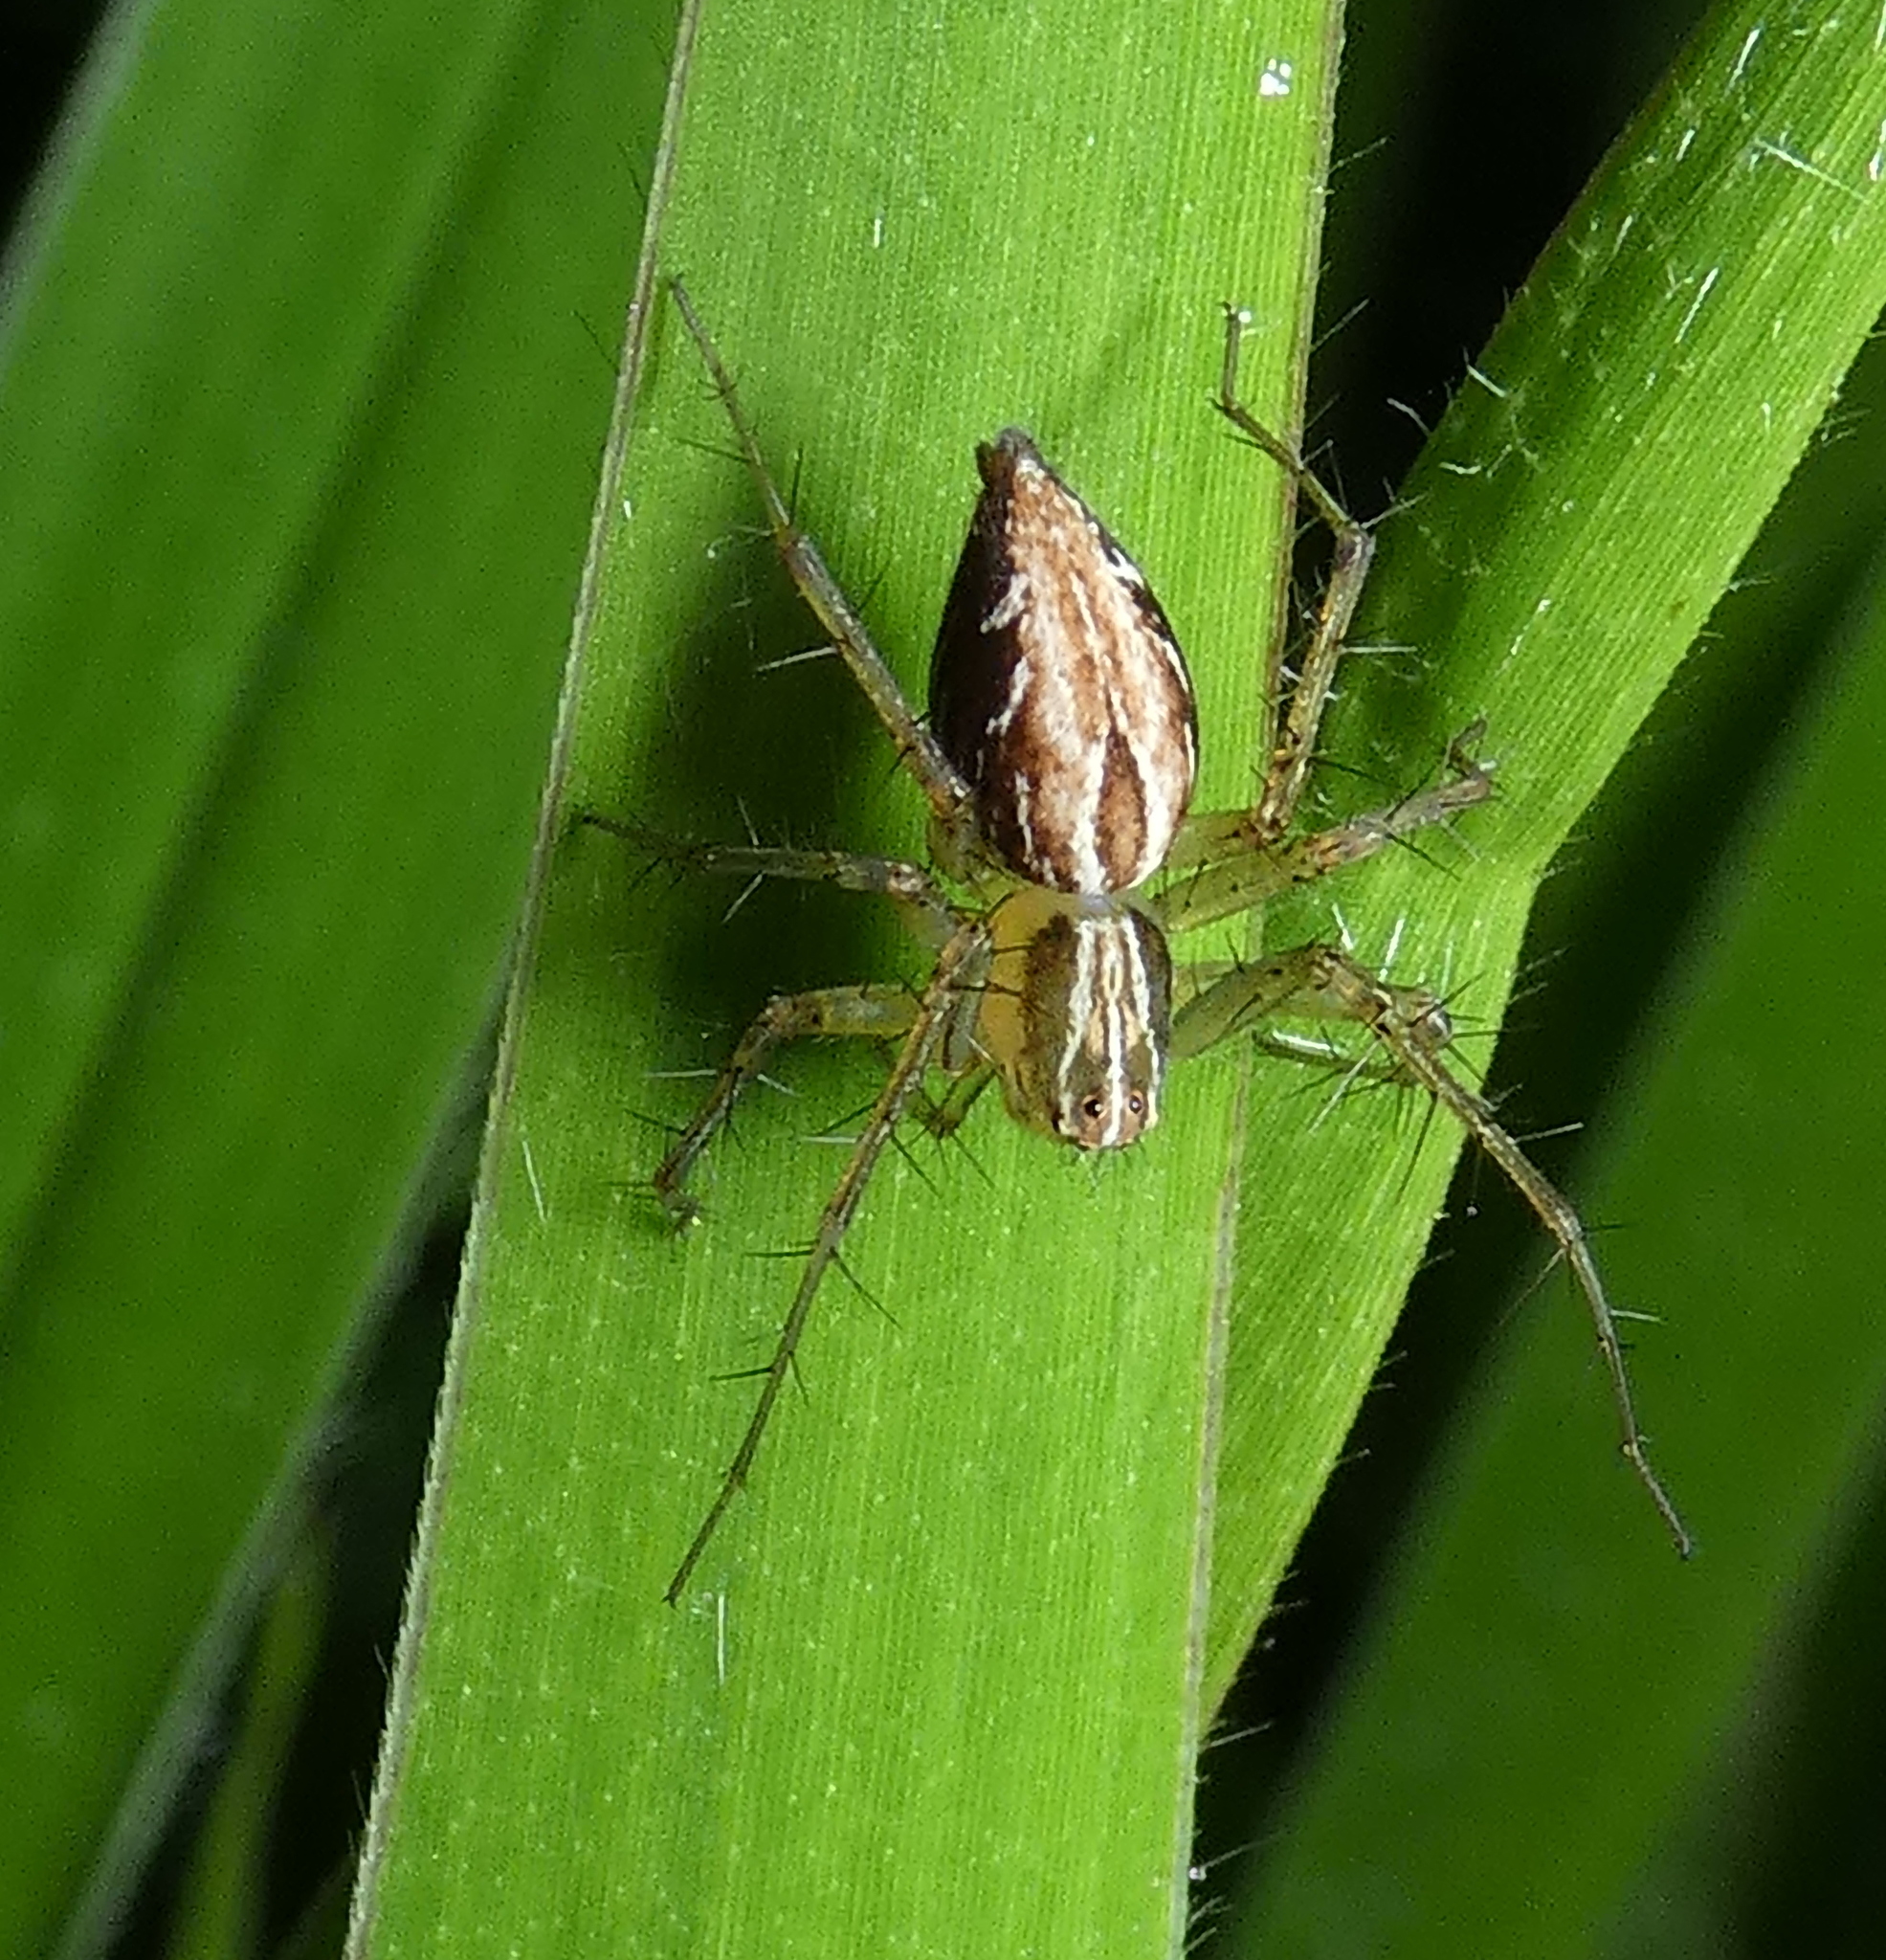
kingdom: Animalia
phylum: Arthropoda
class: Arachnida
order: Araneae
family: Oxyopidae
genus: Oxyopes
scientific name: Oxyopes salticus
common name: Lynx spiders
